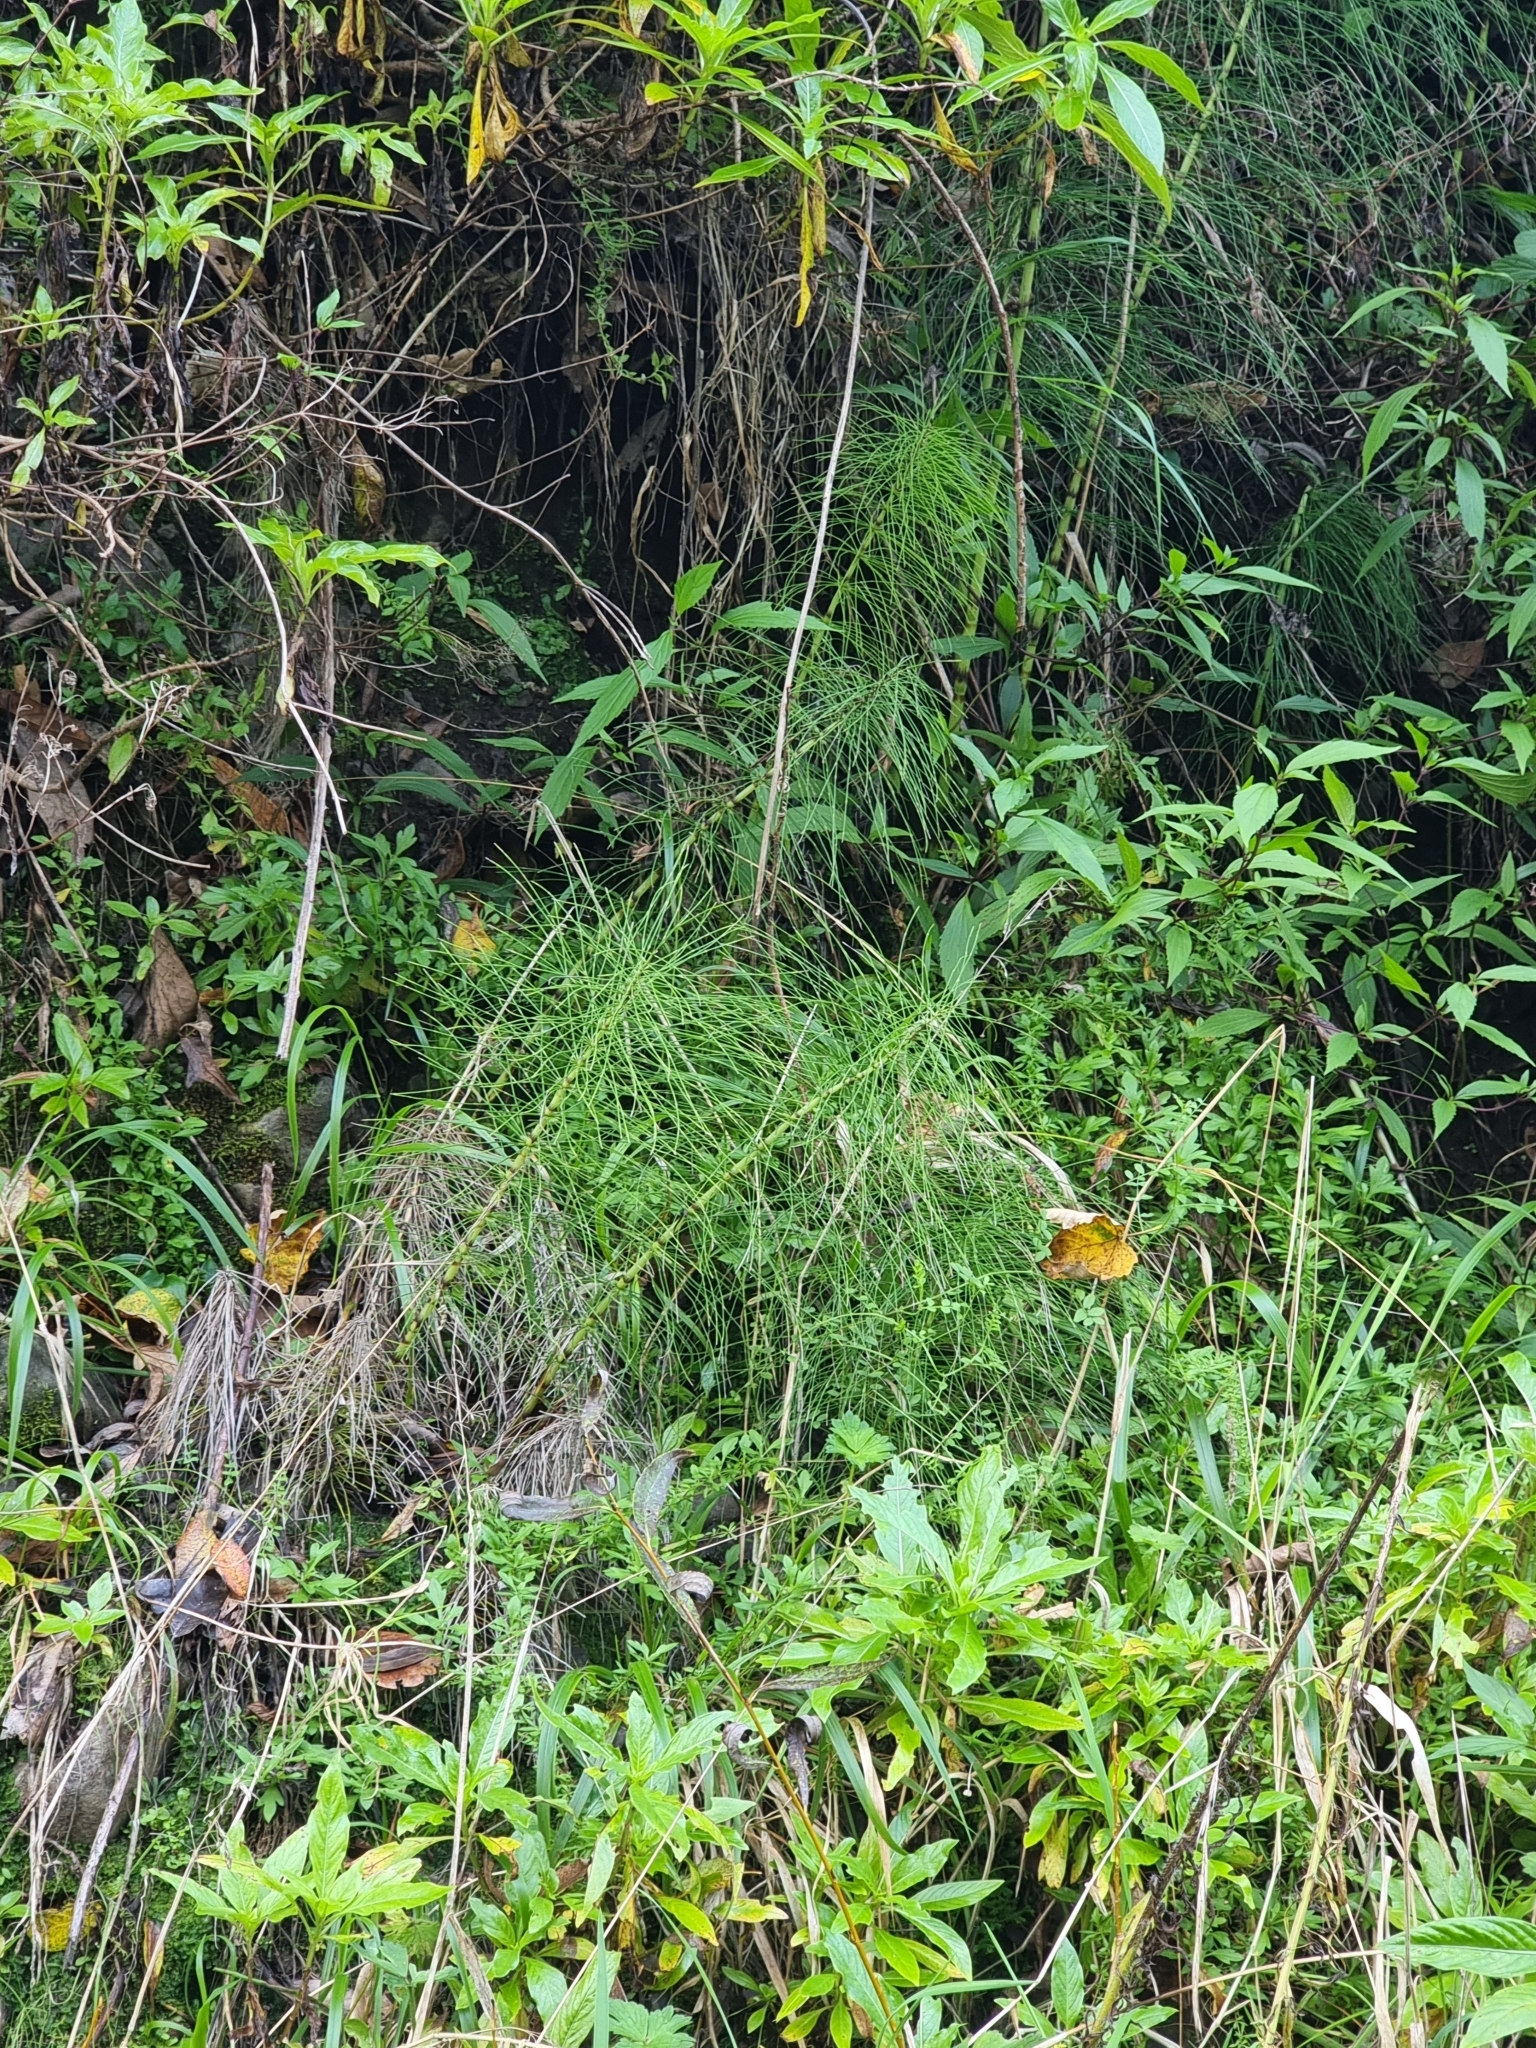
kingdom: Plantae
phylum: Tracheophyta
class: Polypodiopsida
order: Equisetales
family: Equisetaceae
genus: Equisetum
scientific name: Equisetum telmateia
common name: Great horsetail
